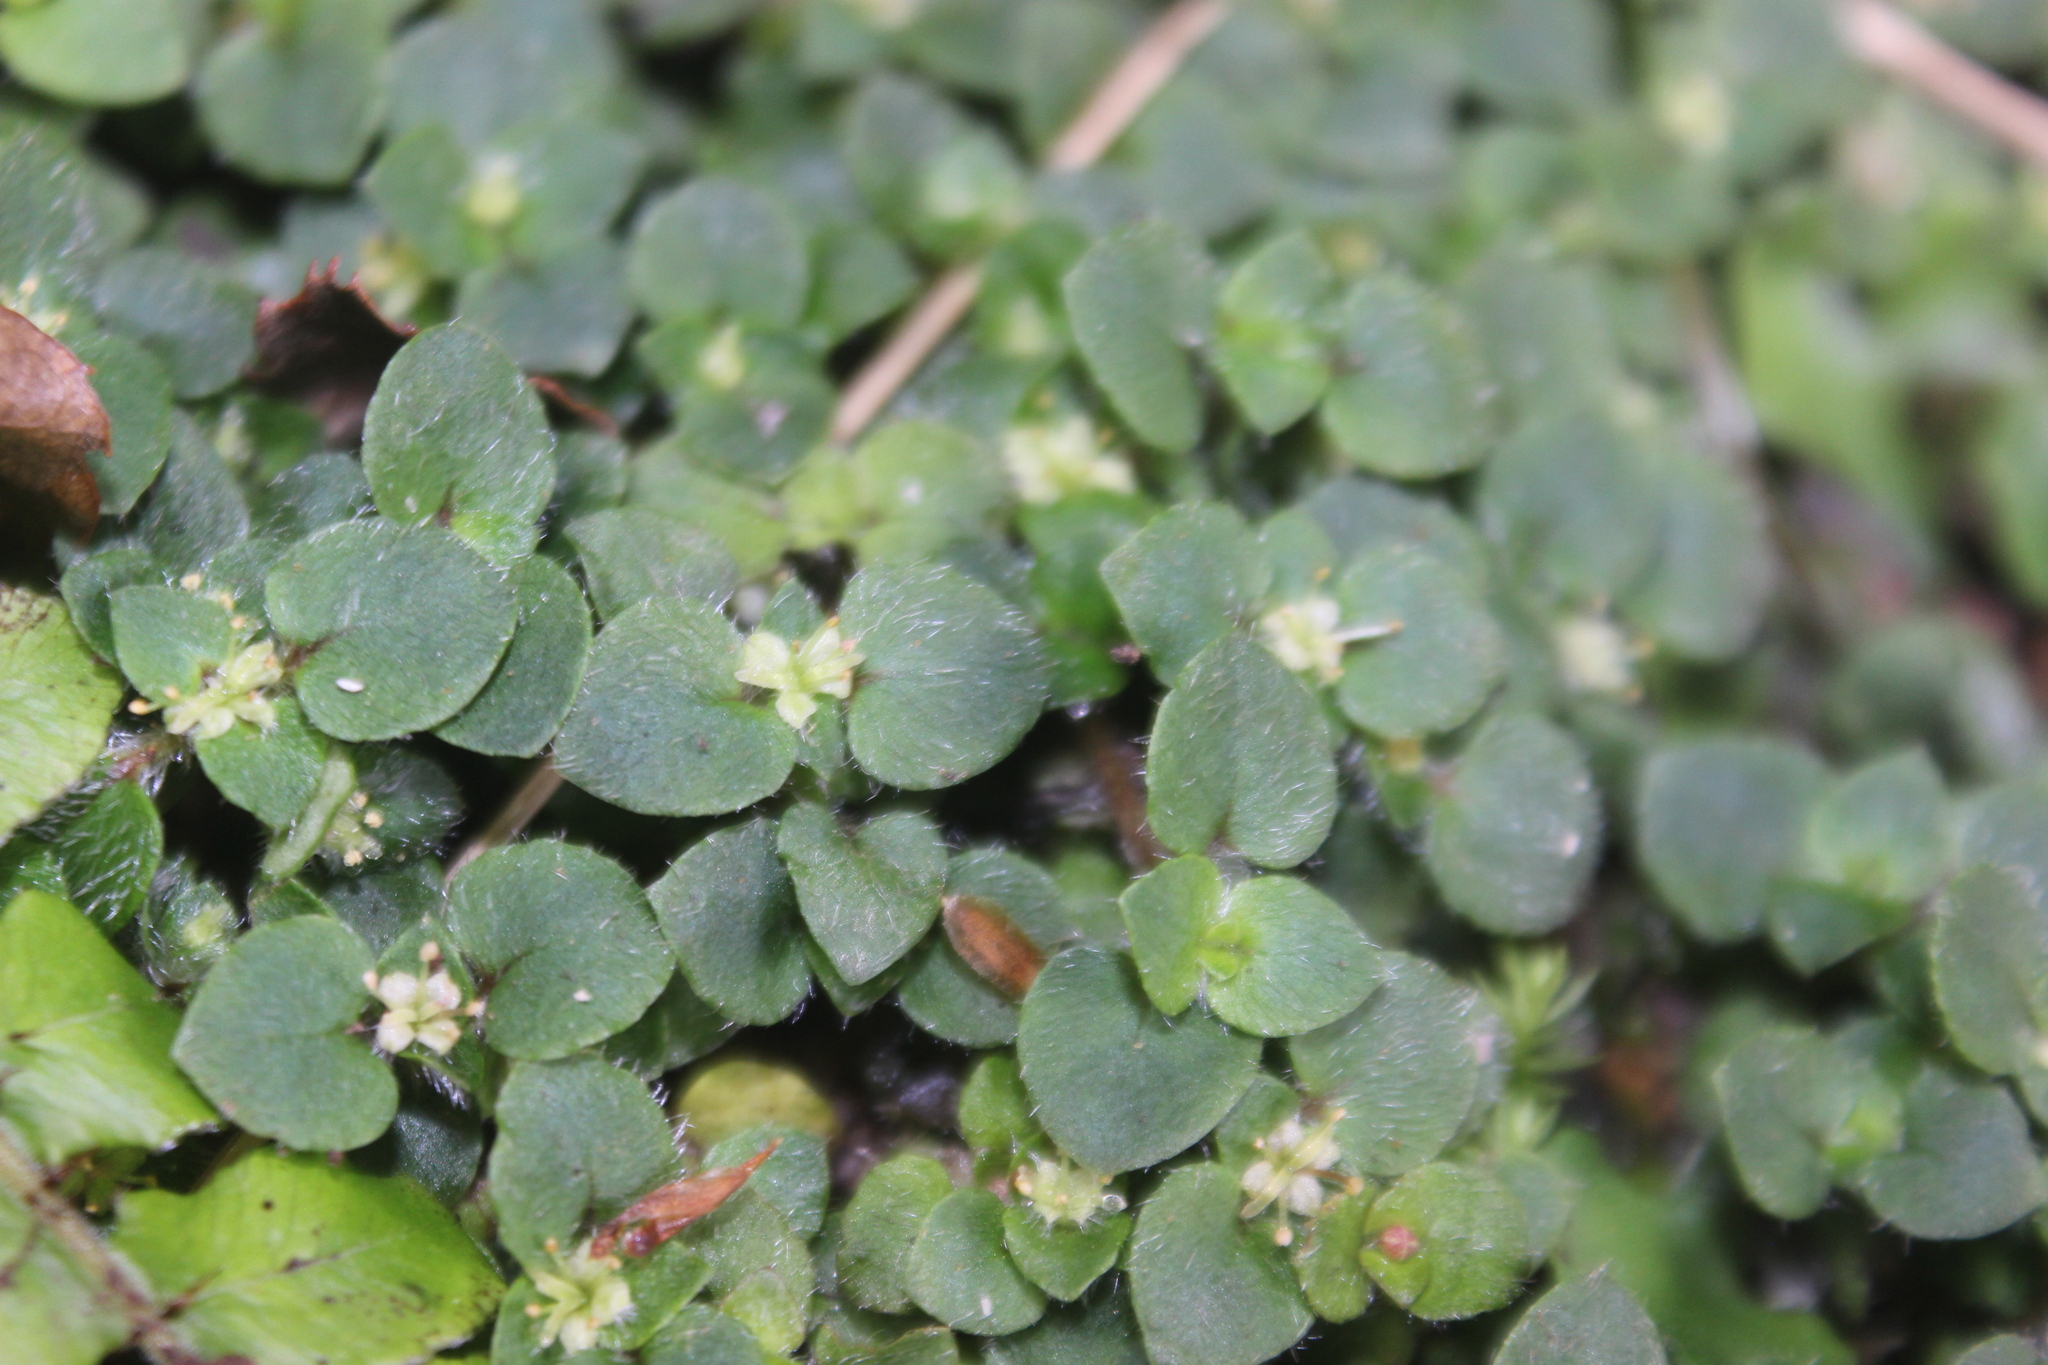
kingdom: Plantae
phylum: Tracheophyta
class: Magnoliopsida
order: Gentianales
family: Rubiaceae
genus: Nertera
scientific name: Nertera villosa
